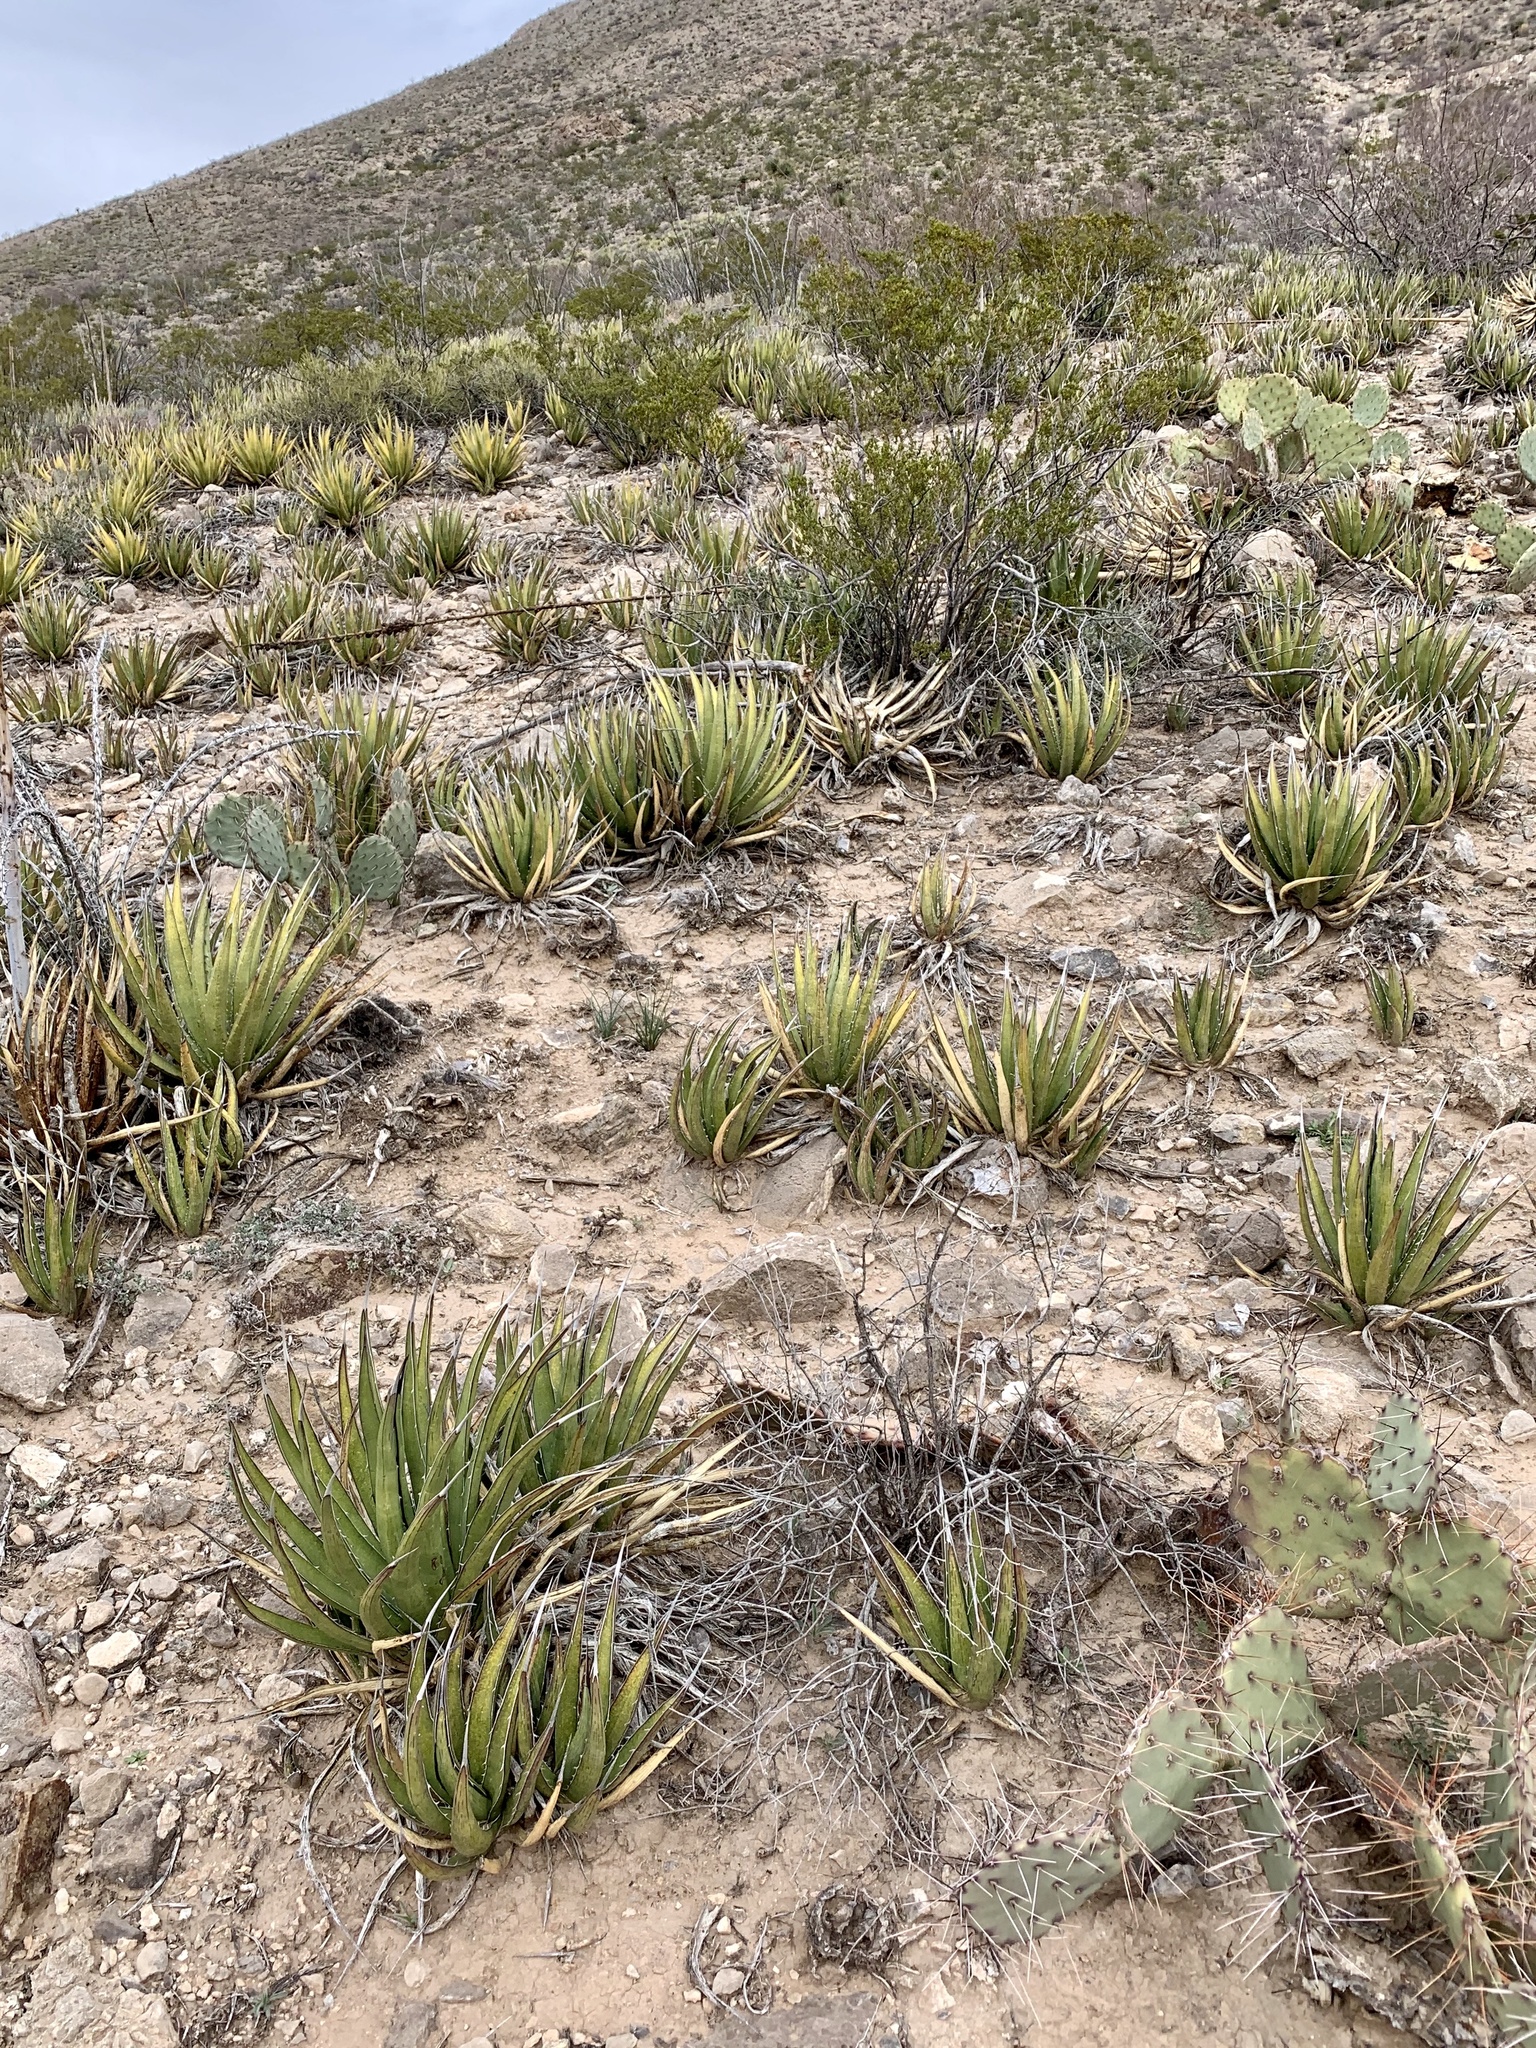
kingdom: Plantae
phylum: Tracheophyta
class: Liliopsida
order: Asparagales
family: Asparagaceae
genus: Agave
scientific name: Agave lechuguilla
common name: Lecheguilla agave
